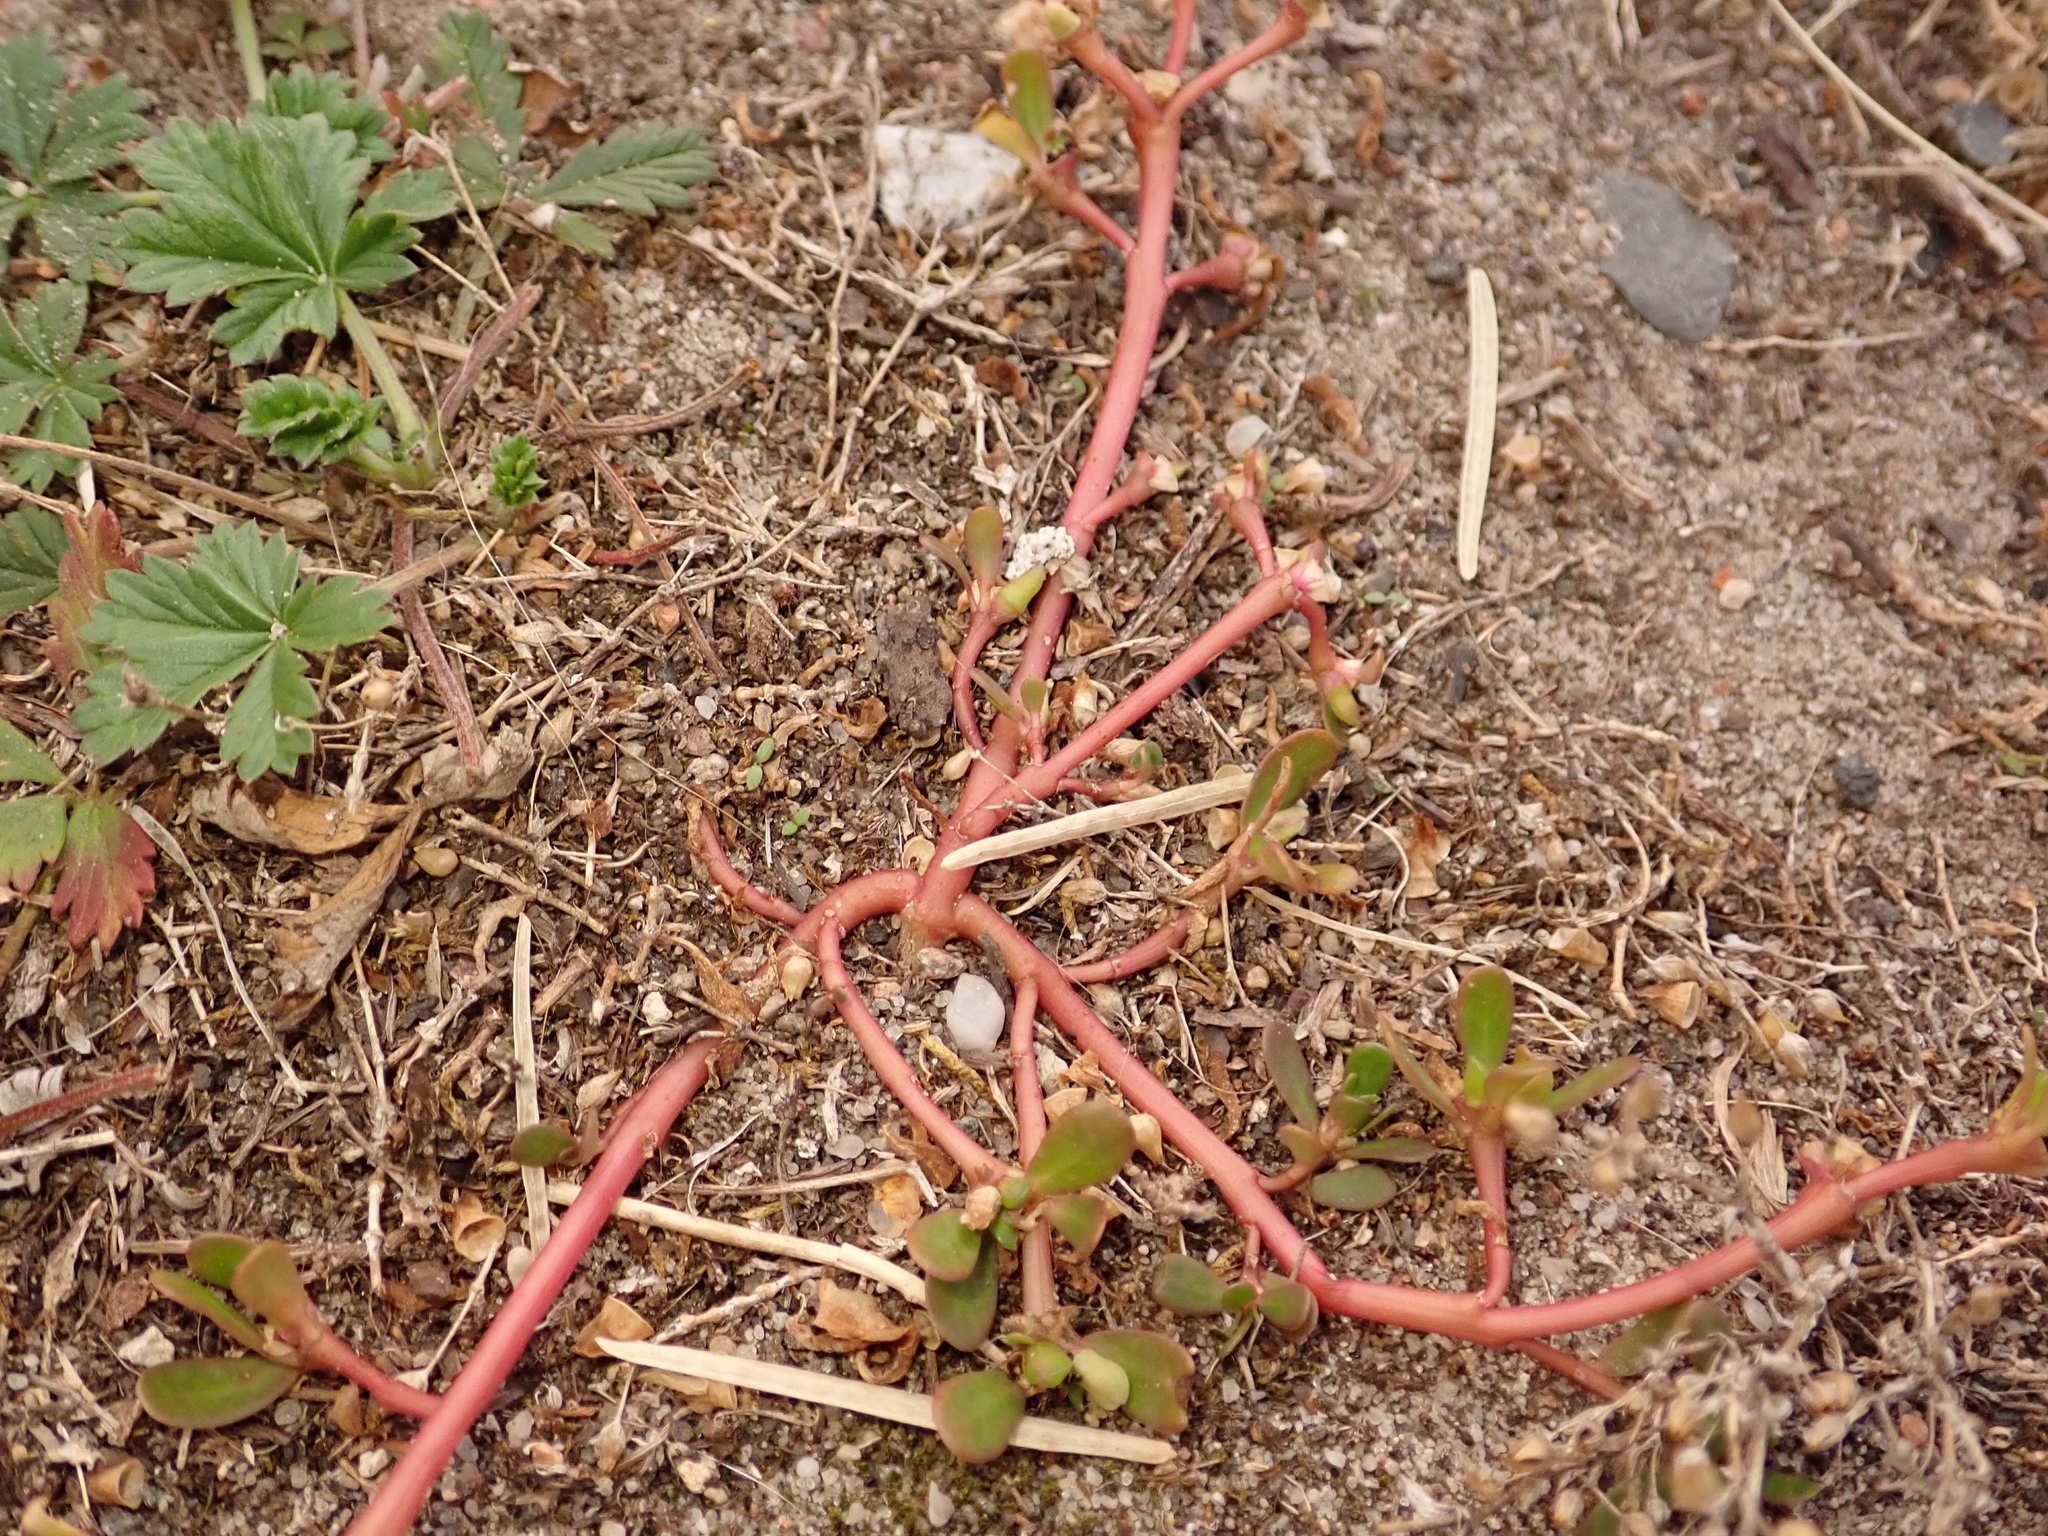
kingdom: Plantae
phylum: Tracheophyta
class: Magnoliopsida
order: Caryophyllales
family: Portulacaceae
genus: Portulaca
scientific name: Portulaca oleracea
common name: Common purslane
